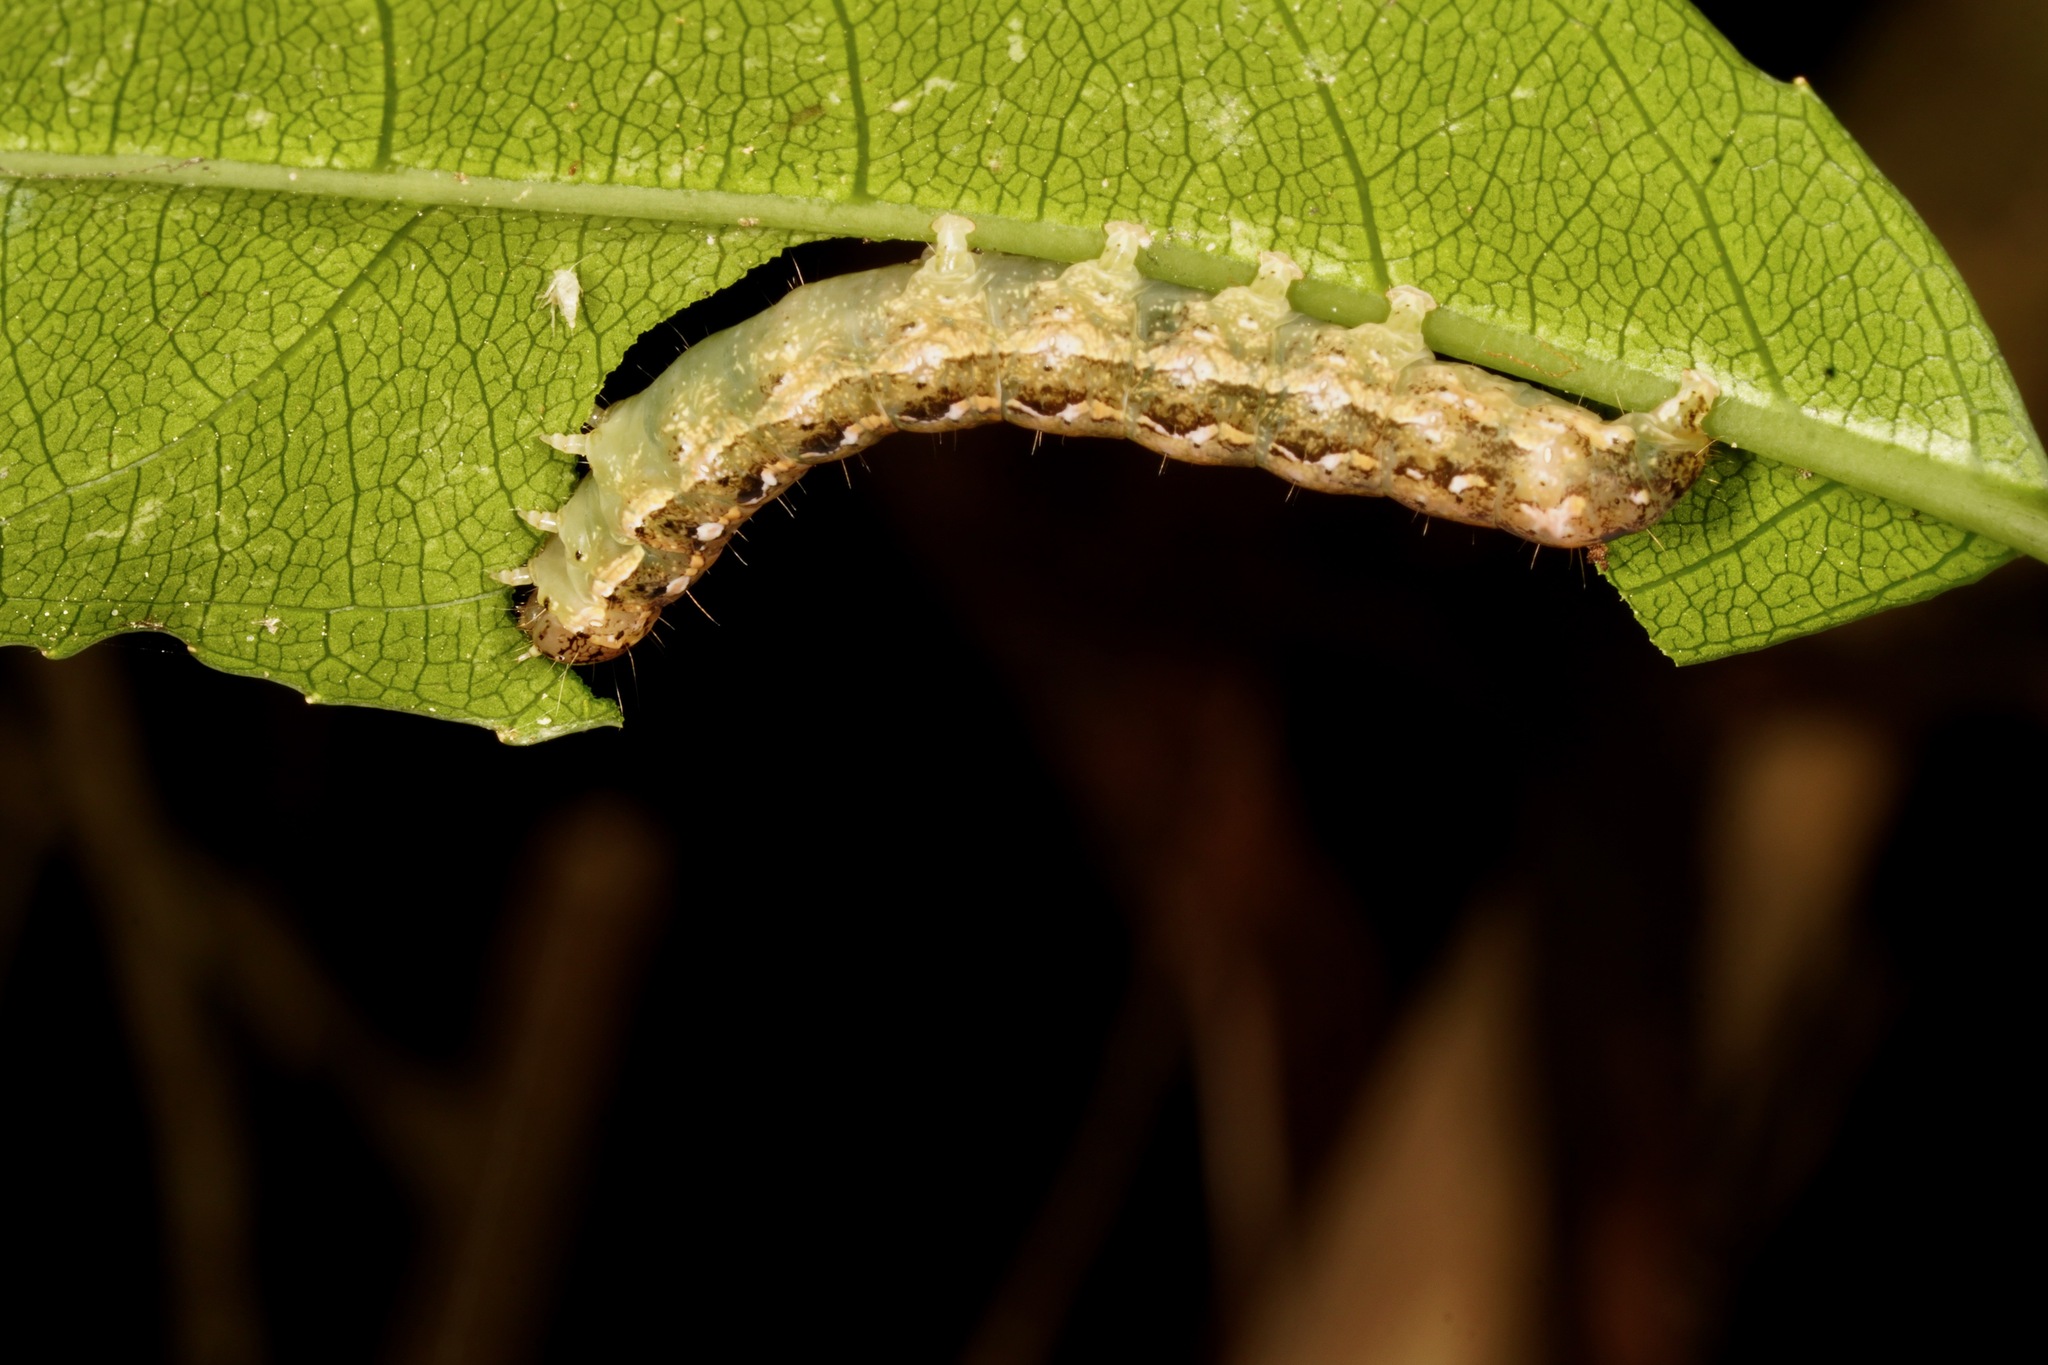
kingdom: Animalia
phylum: Arthropoda
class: Insecta
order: Lepidoptera
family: Noctuidae
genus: Feredayia
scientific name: Feredayia grammosa
